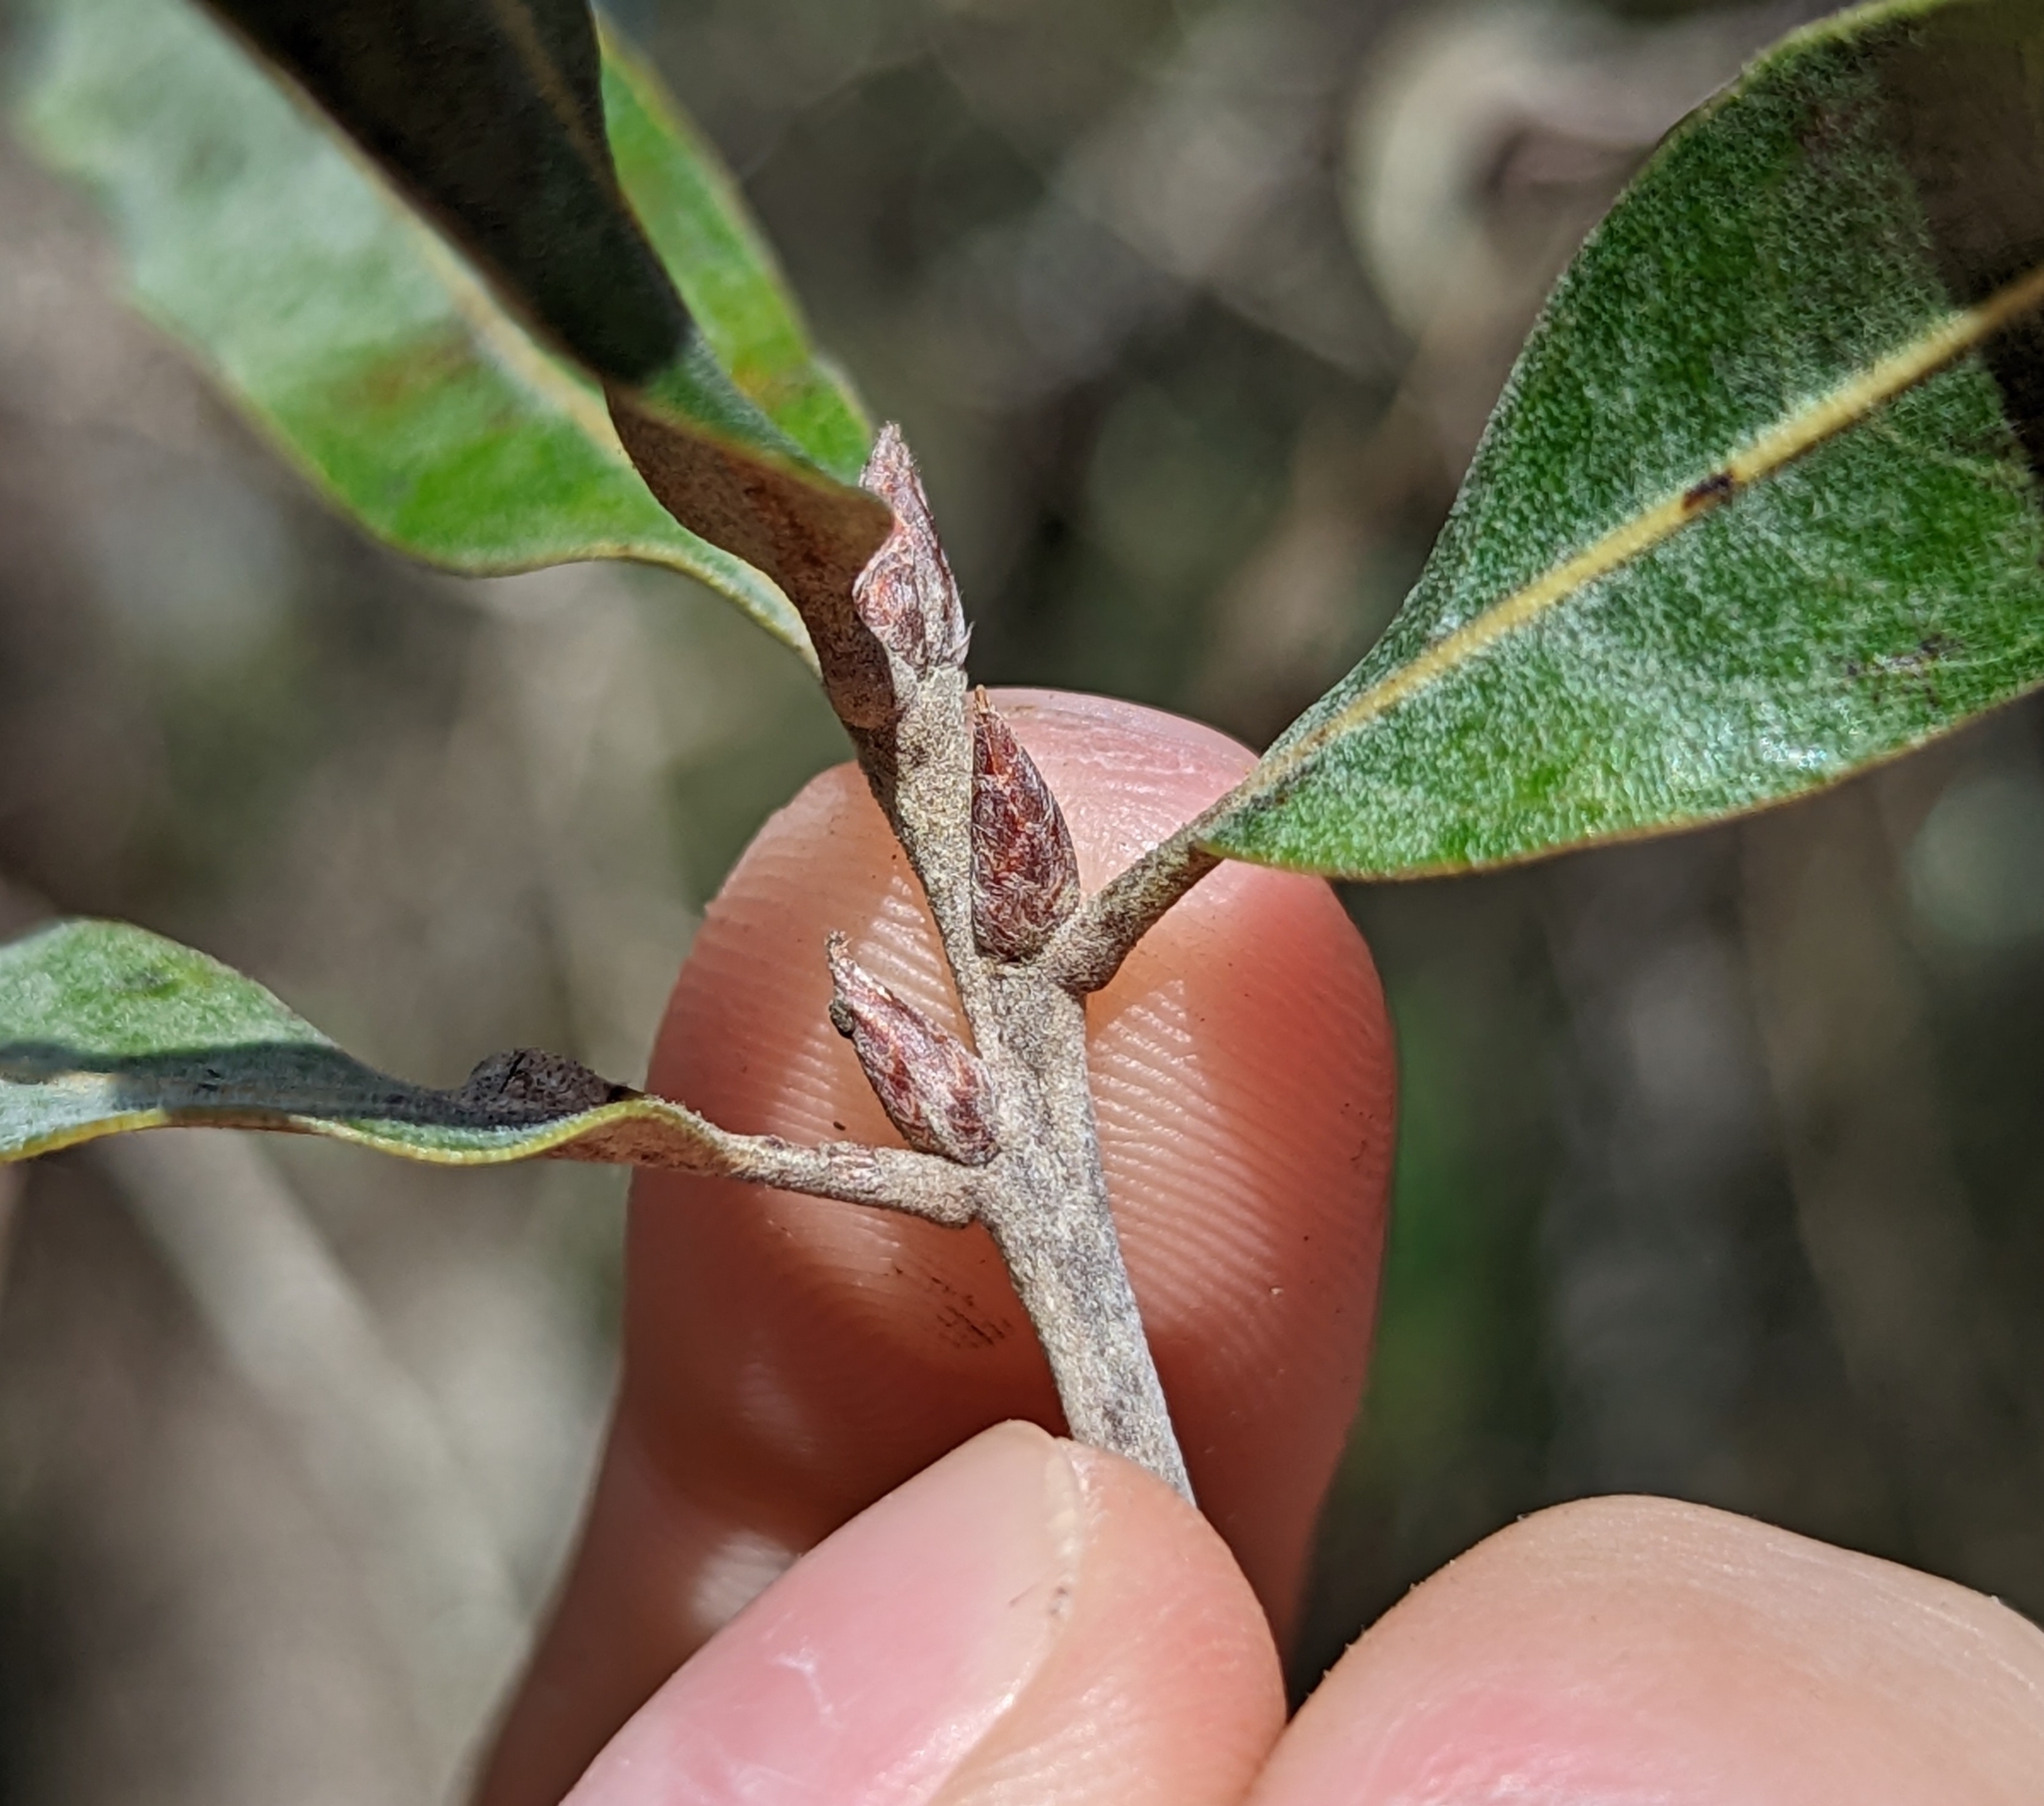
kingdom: Plantae
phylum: Tracheophyta
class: Magnoliopsida
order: Fagales
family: Fagaceae
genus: Quercus
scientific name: Quercus incana
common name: Bluejack oak
